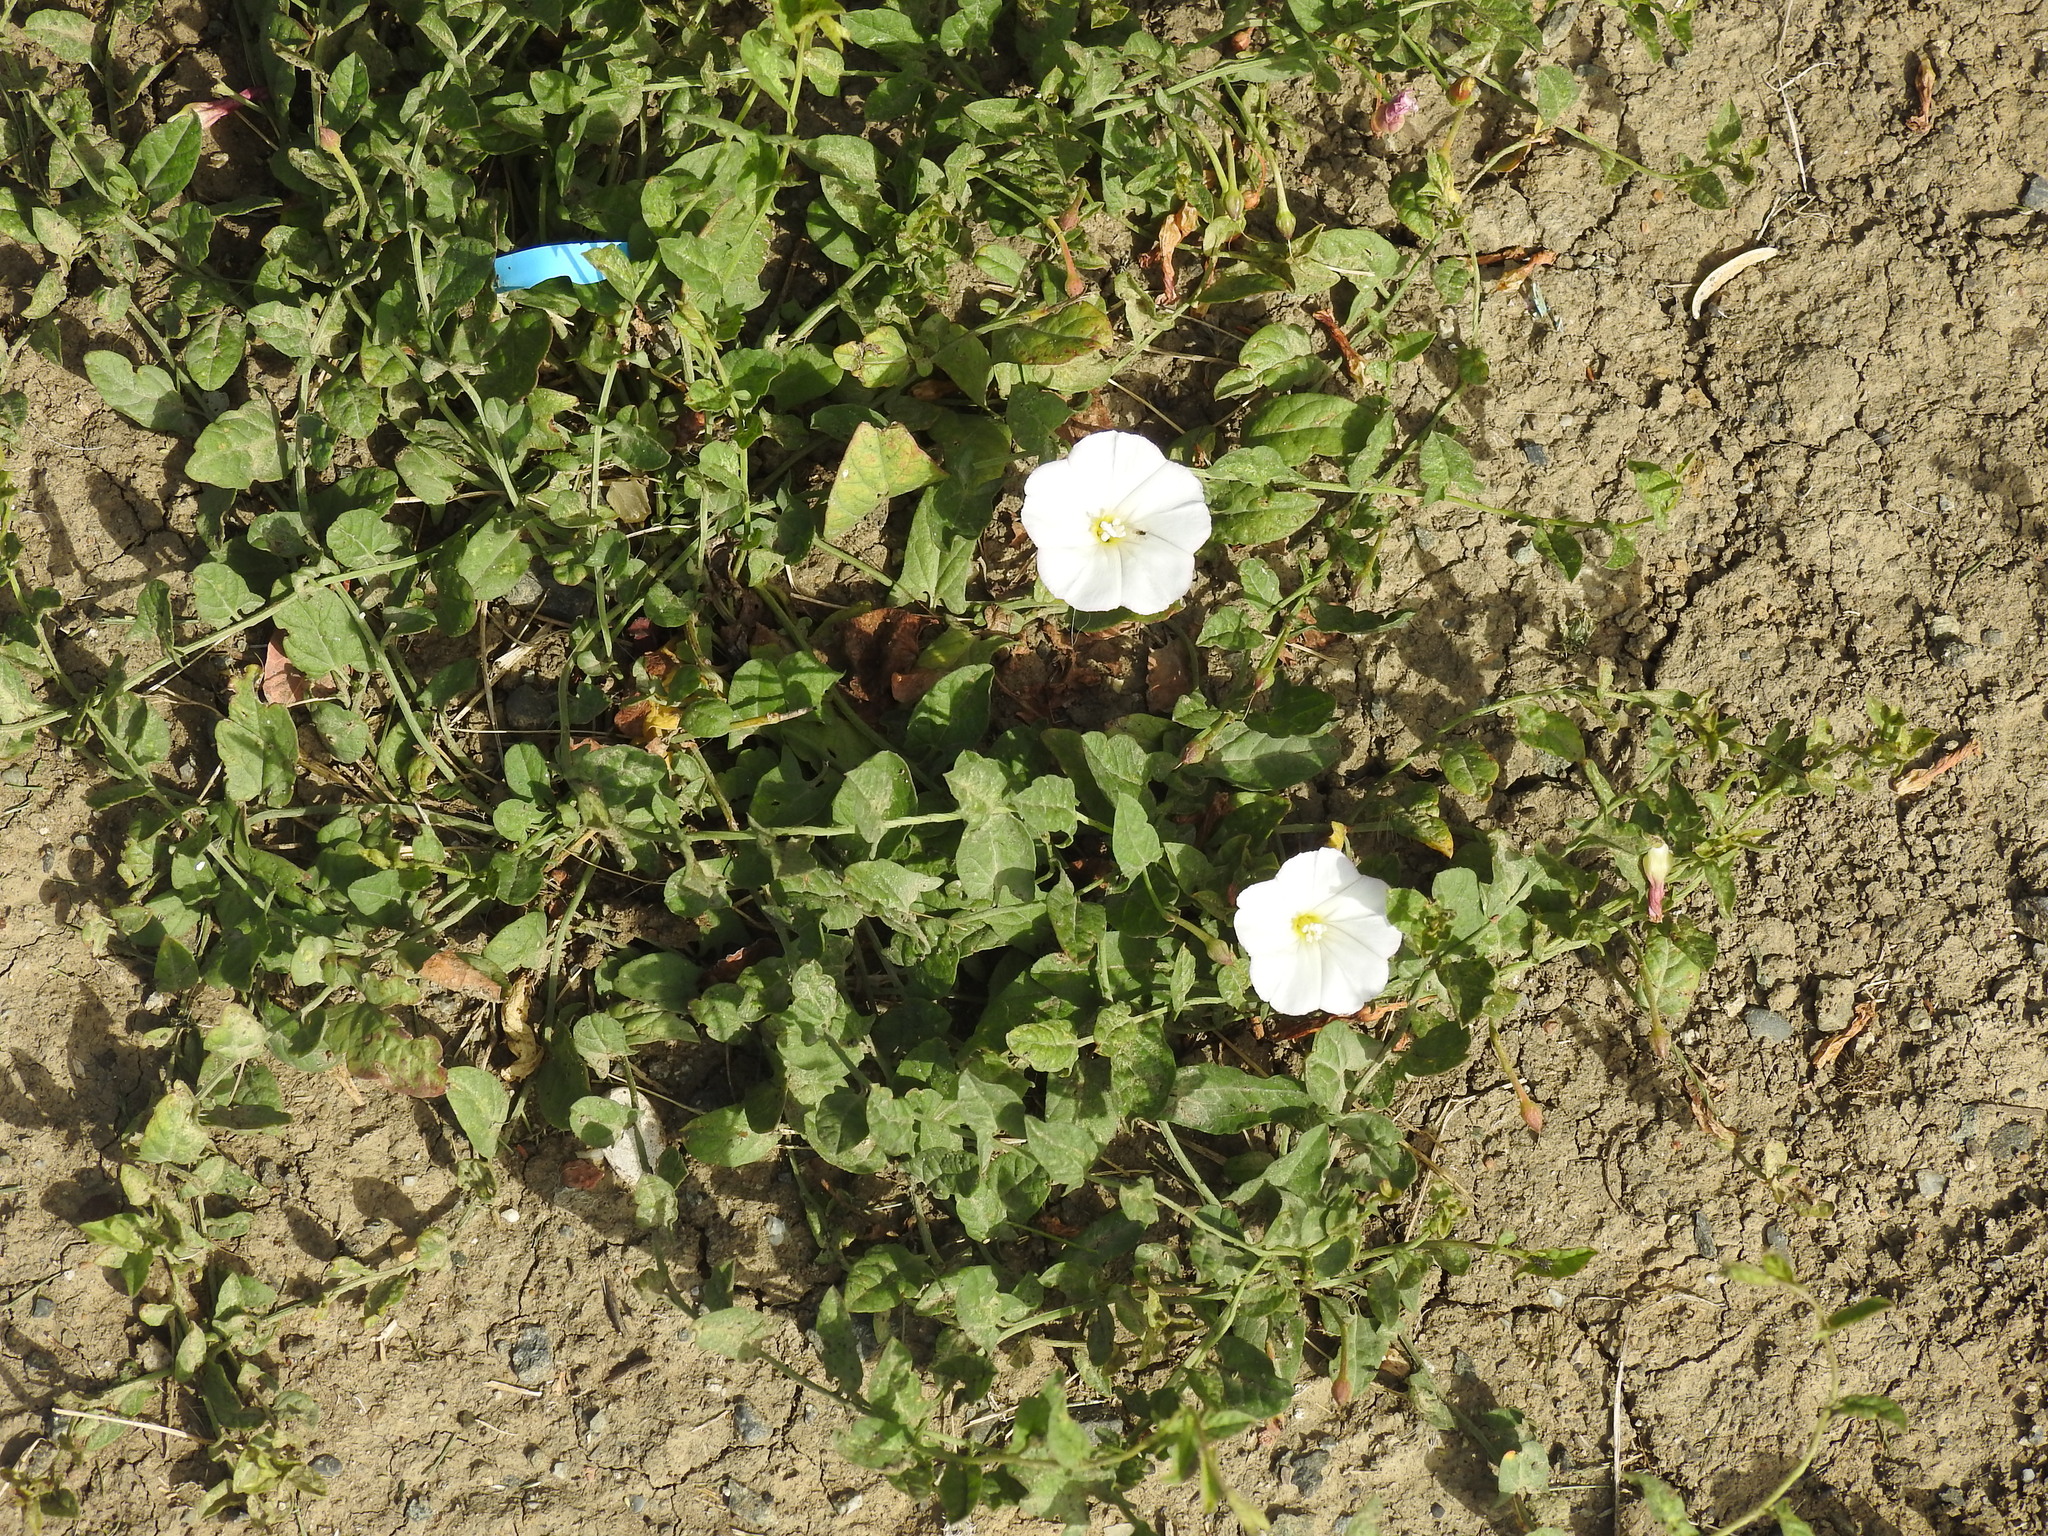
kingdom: Plantae
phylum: Tracheophyta
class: Magnoliopsida
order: Solanales
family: Convolvulaceae
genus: Convolvulus
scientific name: Convolvulus arvensis
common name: Field bindweed
